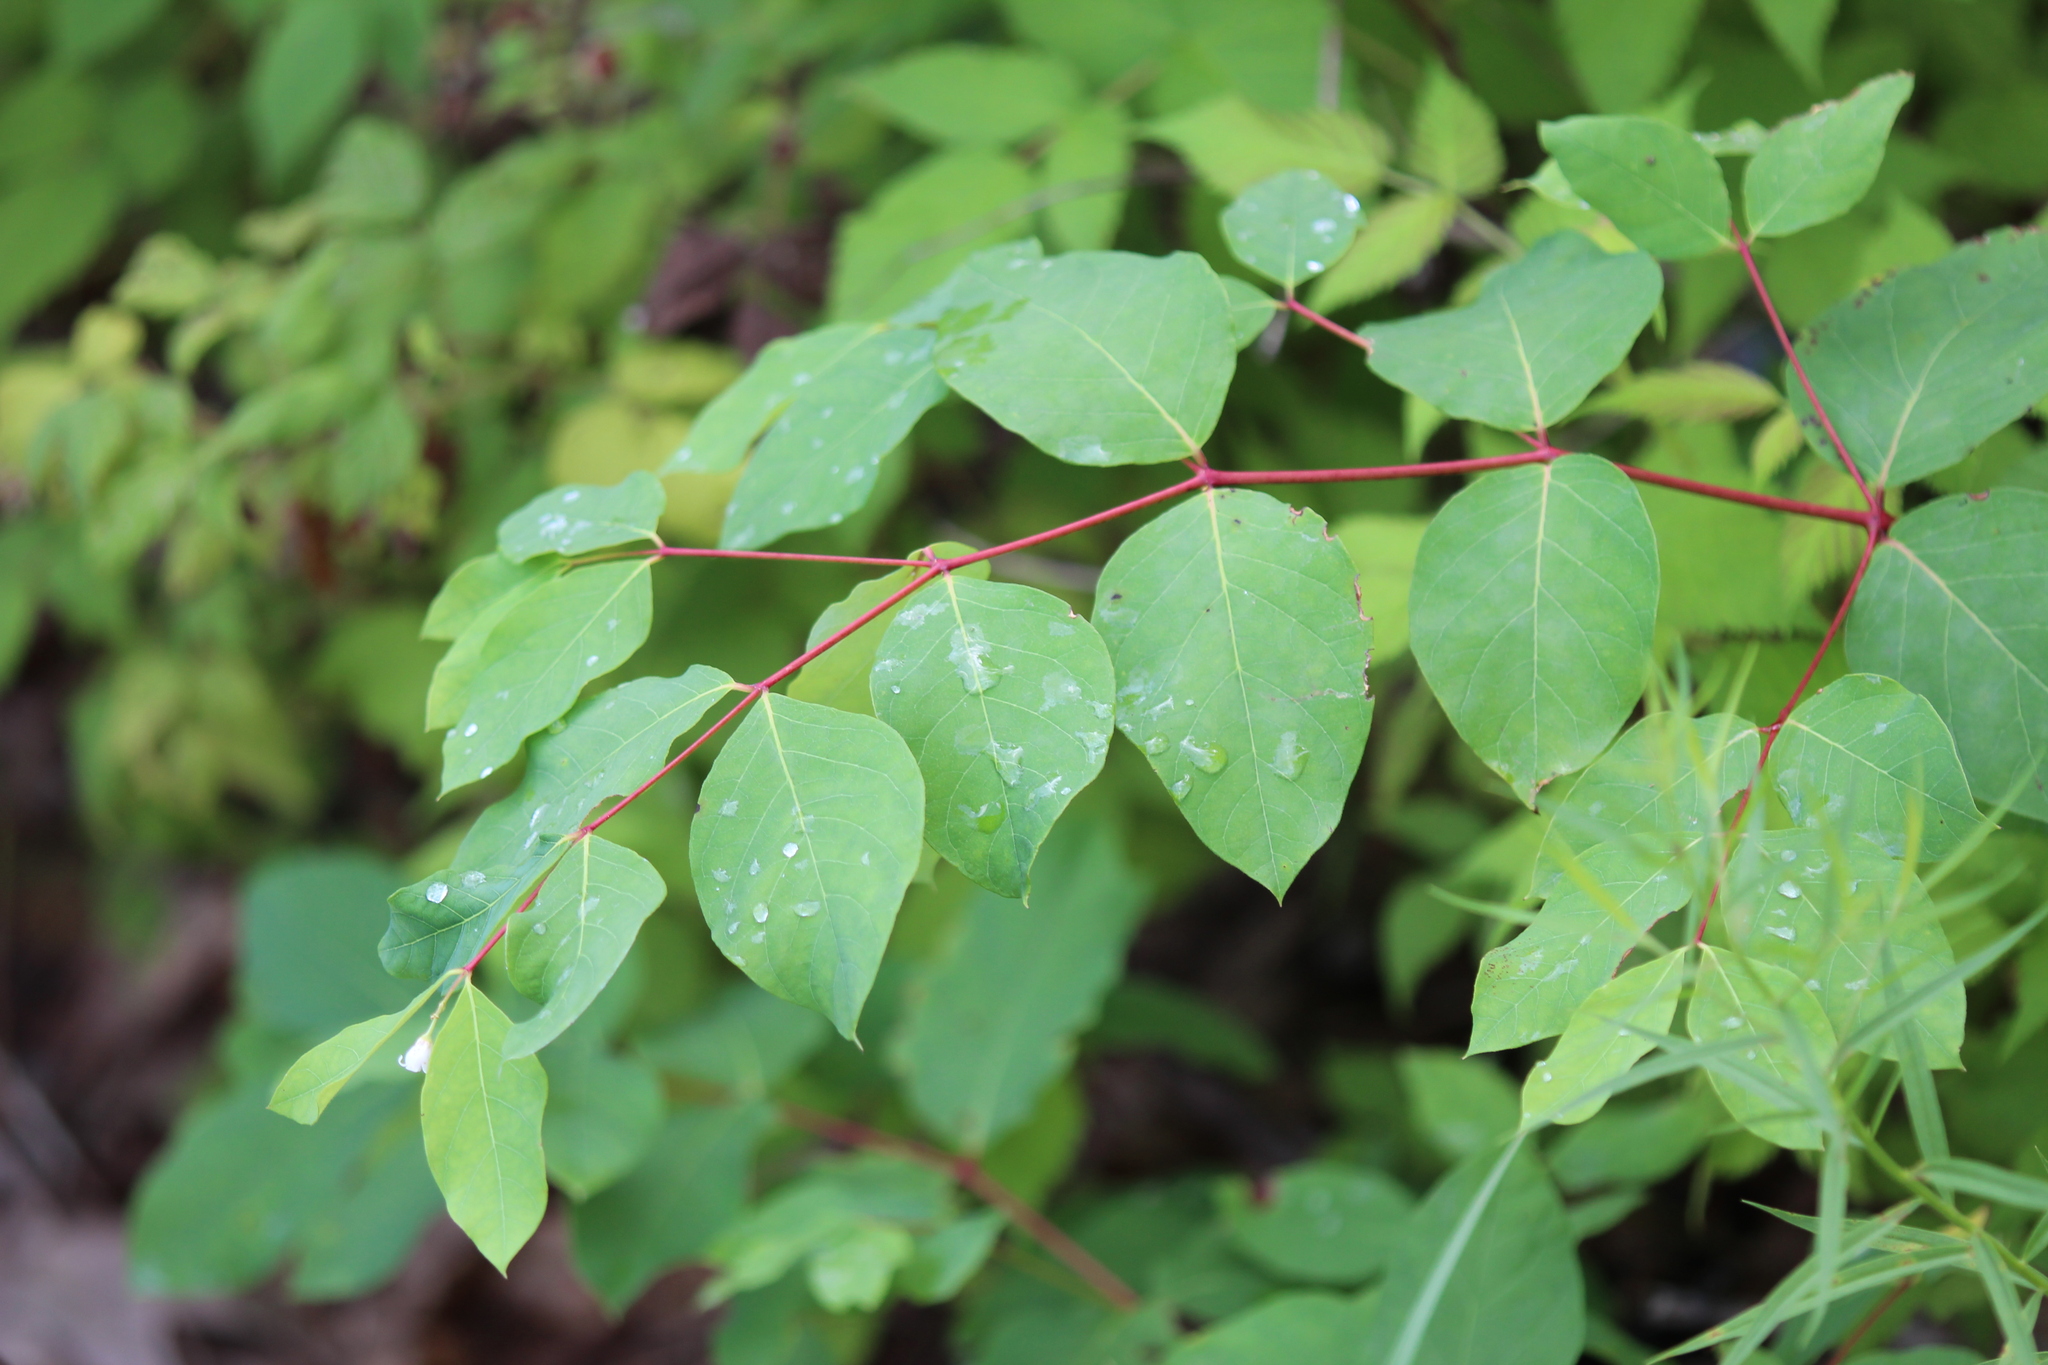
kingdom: Plantae
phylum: Tracheophyta
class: Magnoliopsida
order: Gentianales
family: Apocynaceae
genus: Apocynum
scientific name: Apocynum androsaemifolium
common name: Spreading dogbane
